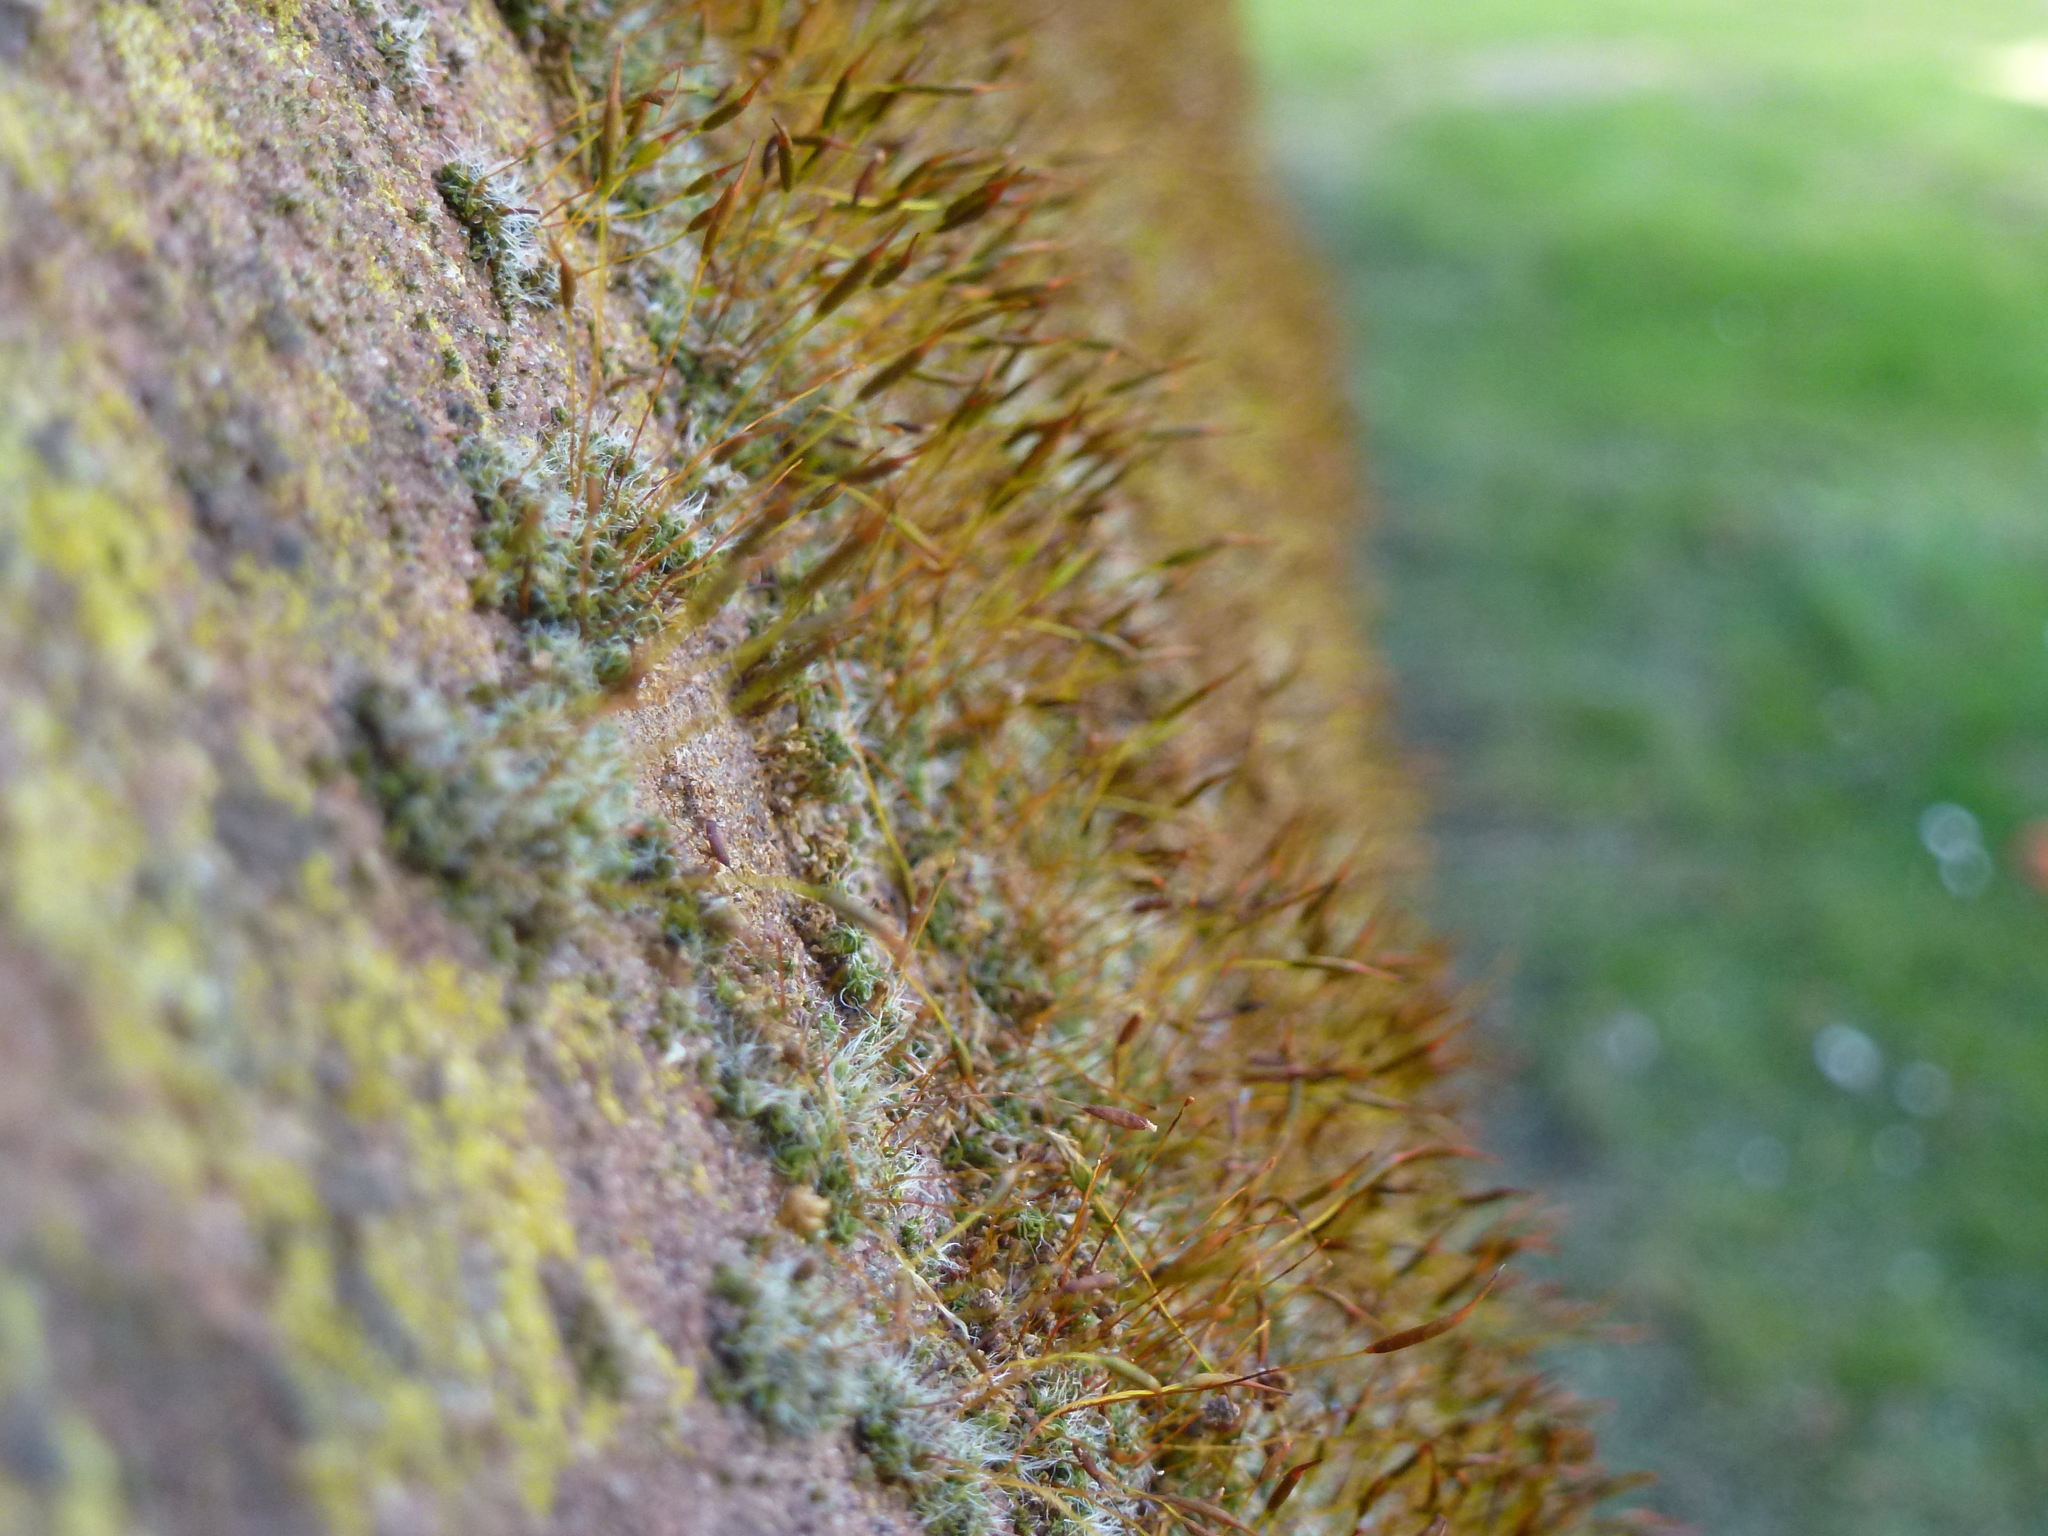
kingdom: Plantae
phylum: Bryophyta
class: Bryopsida
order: Pottiales
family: Pottiaceae
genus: Tortula
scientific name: Tortula muralis
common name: Wall screw-moss
